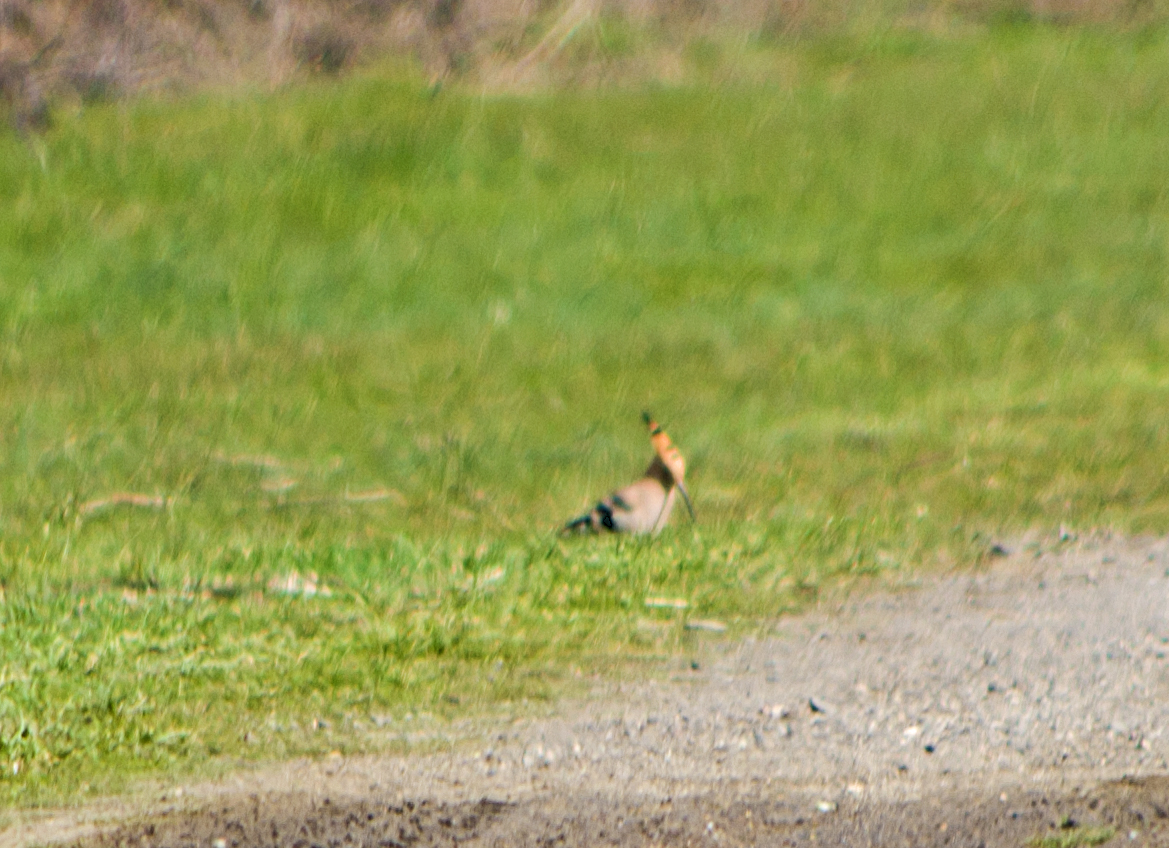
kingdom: Animalia
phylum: Chordata
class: Aves
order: Bucerotiformes
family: Upupidae
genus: Upupa
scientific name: Upupa epops
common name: Eurasian hoopoe
